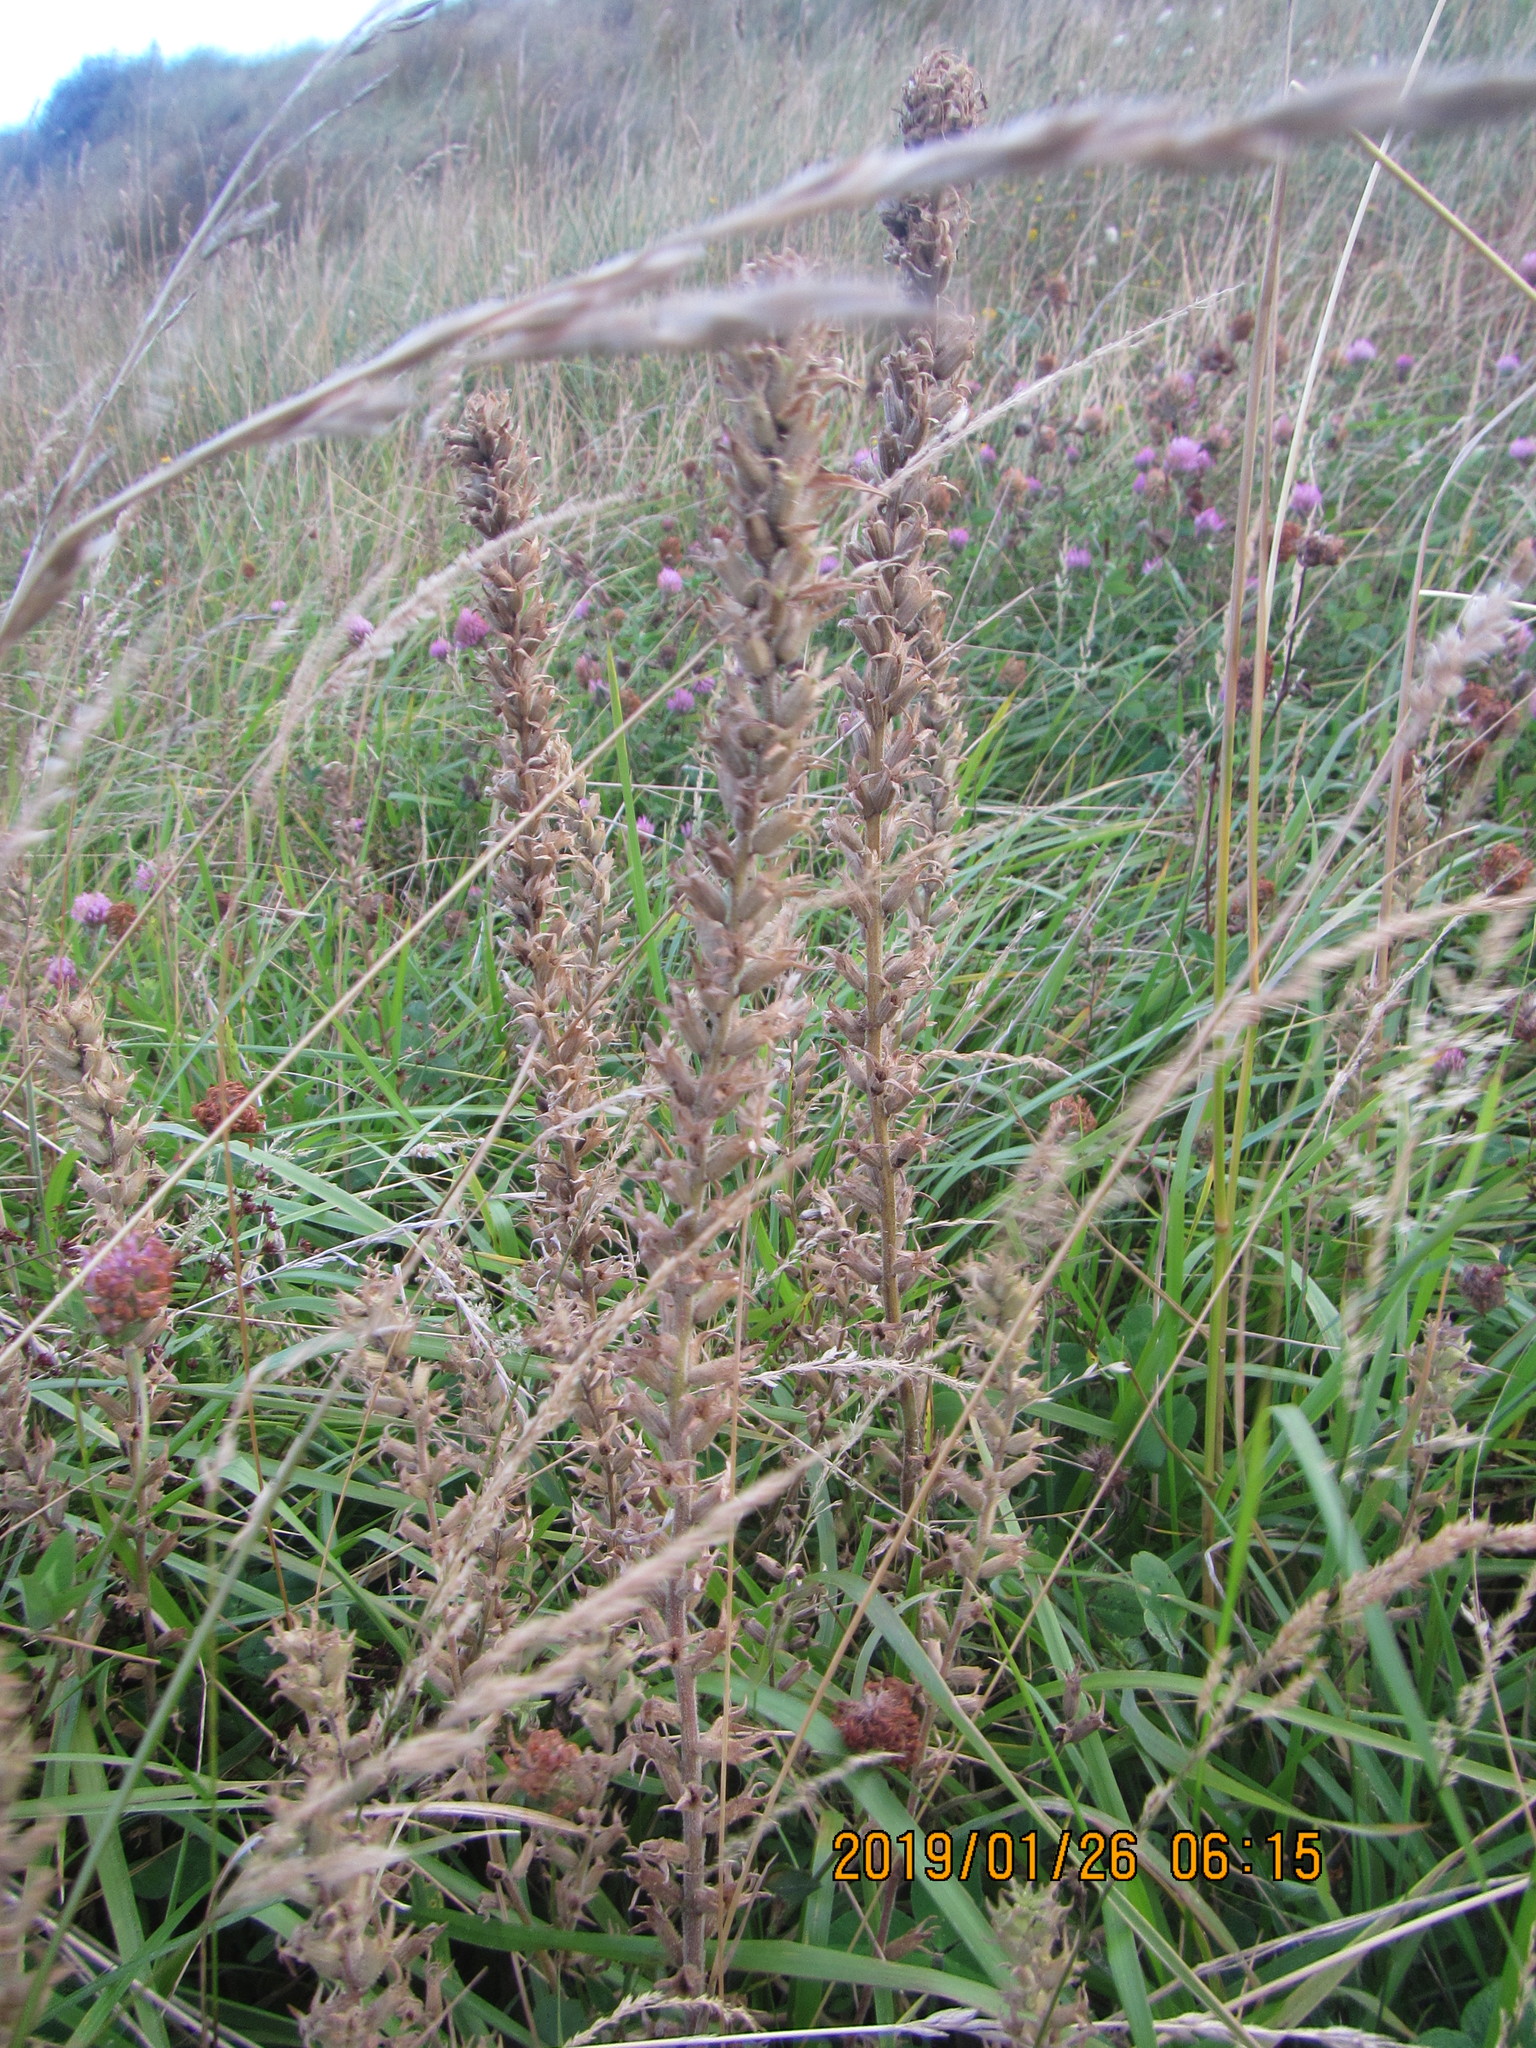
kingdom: Plantae
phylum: Tracheophyta
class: Magnoliopsida
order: Lamiales
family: Orobanchaceae
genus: Bellardia
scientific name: Bellardia viscosa
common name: Sticky parentucellia
